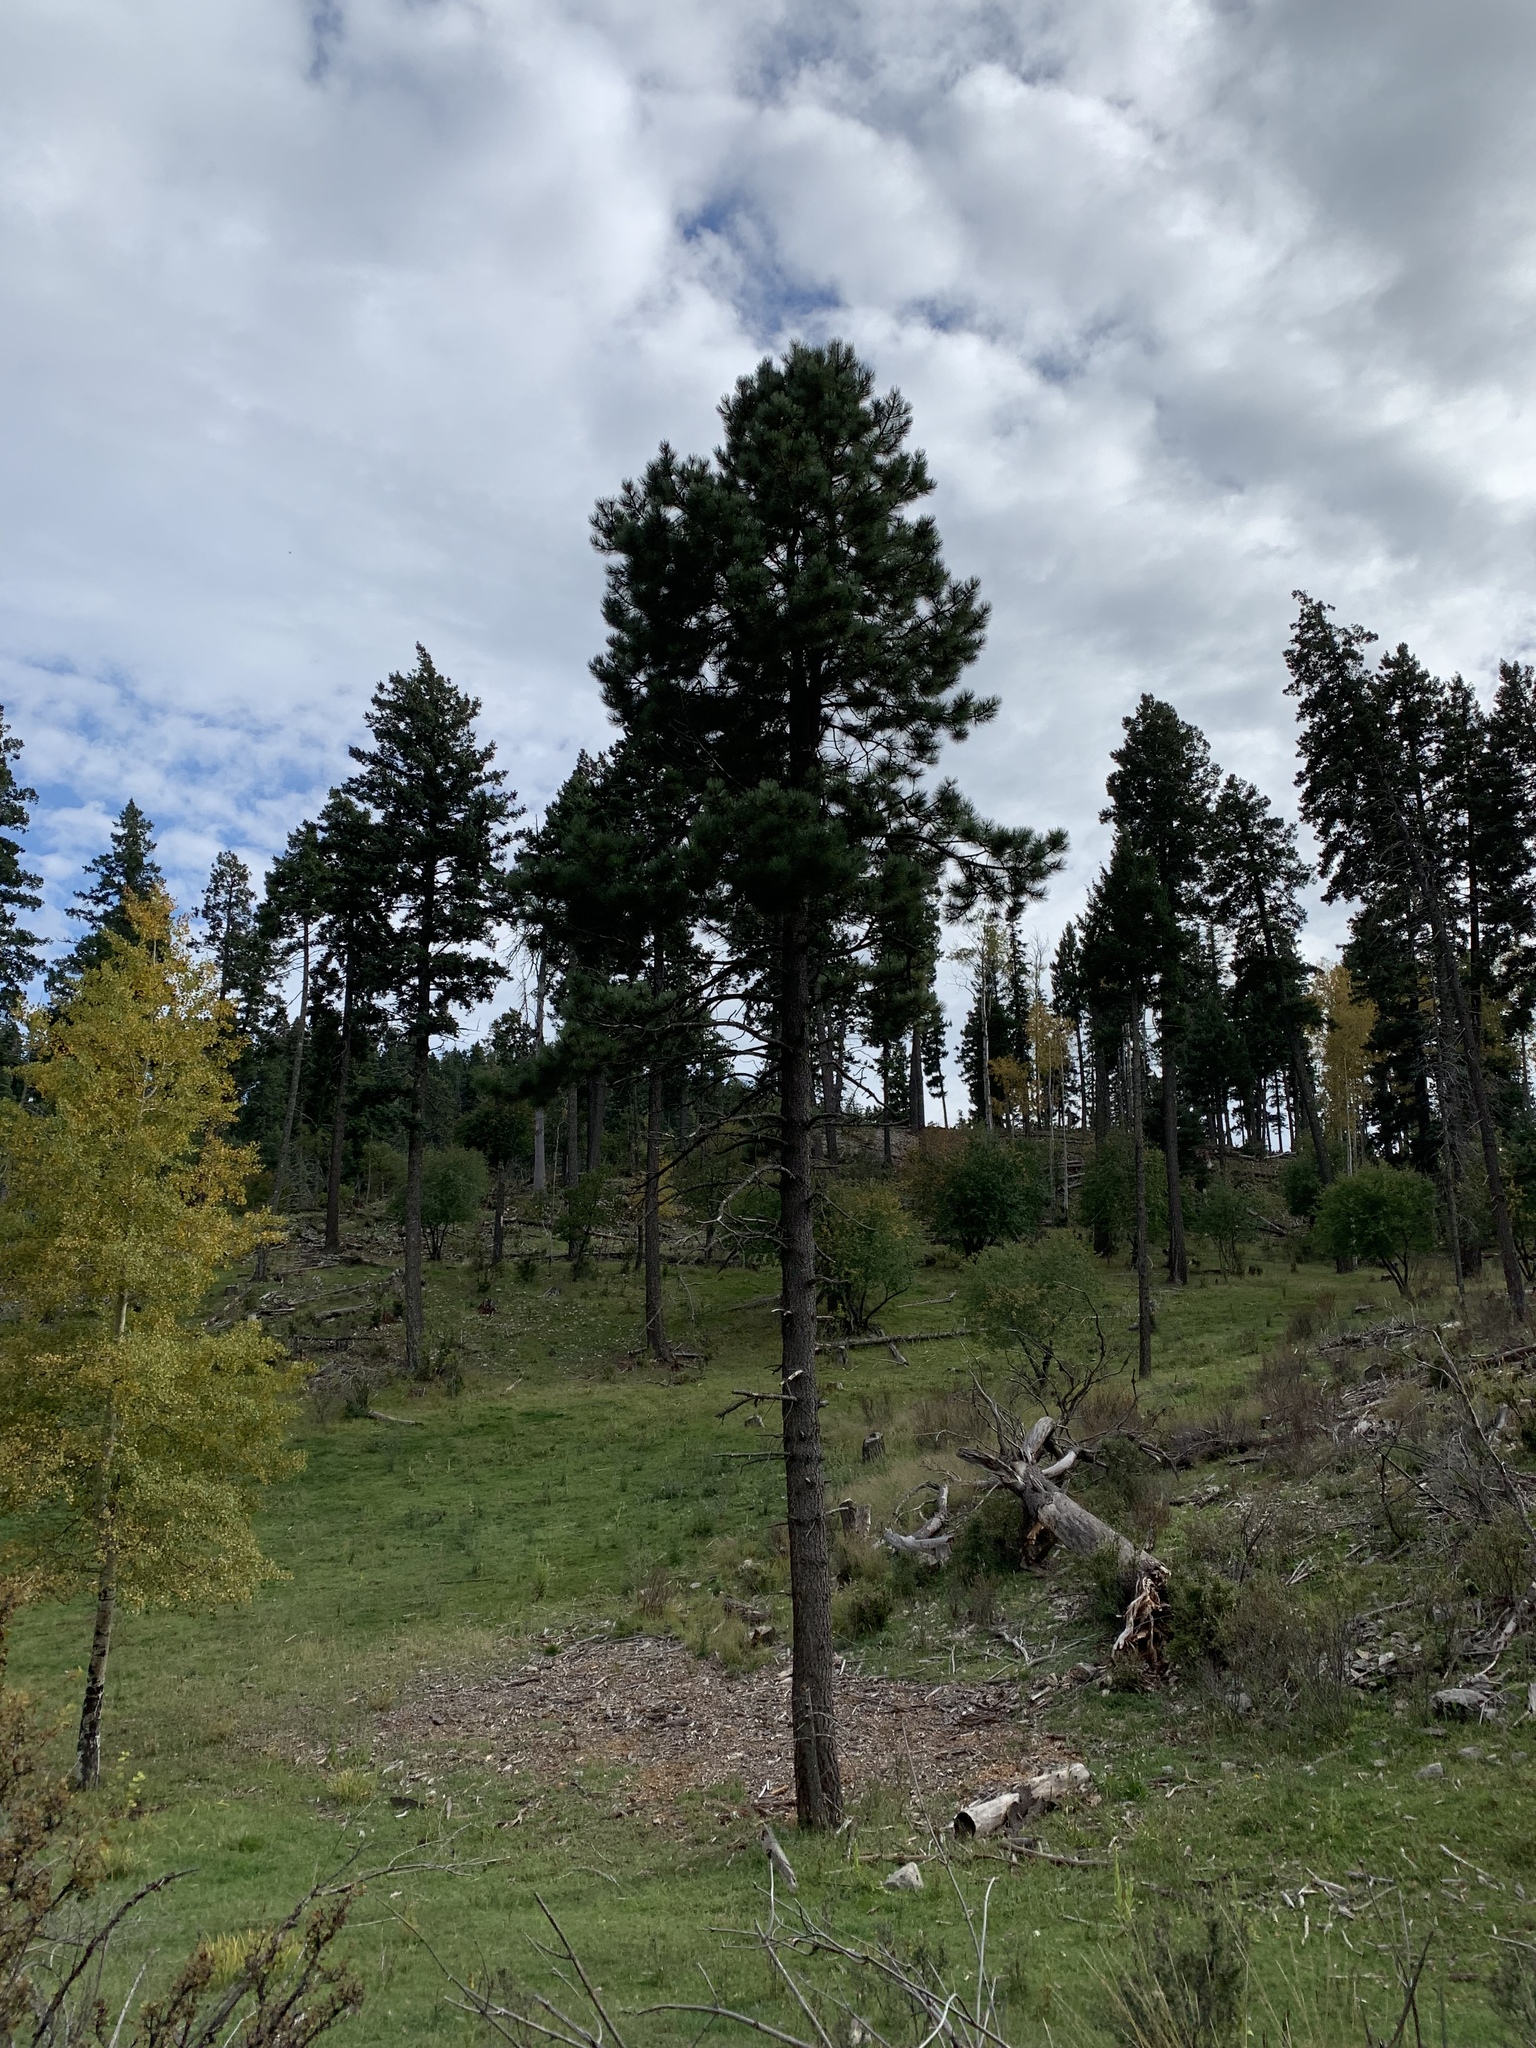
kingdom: Plantae
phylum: Tracheophyta
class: Pinopsida
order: Pinales
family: Pinaceae
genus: Pinus
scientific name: Pinus ponderosa
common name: Western yellow-pine
